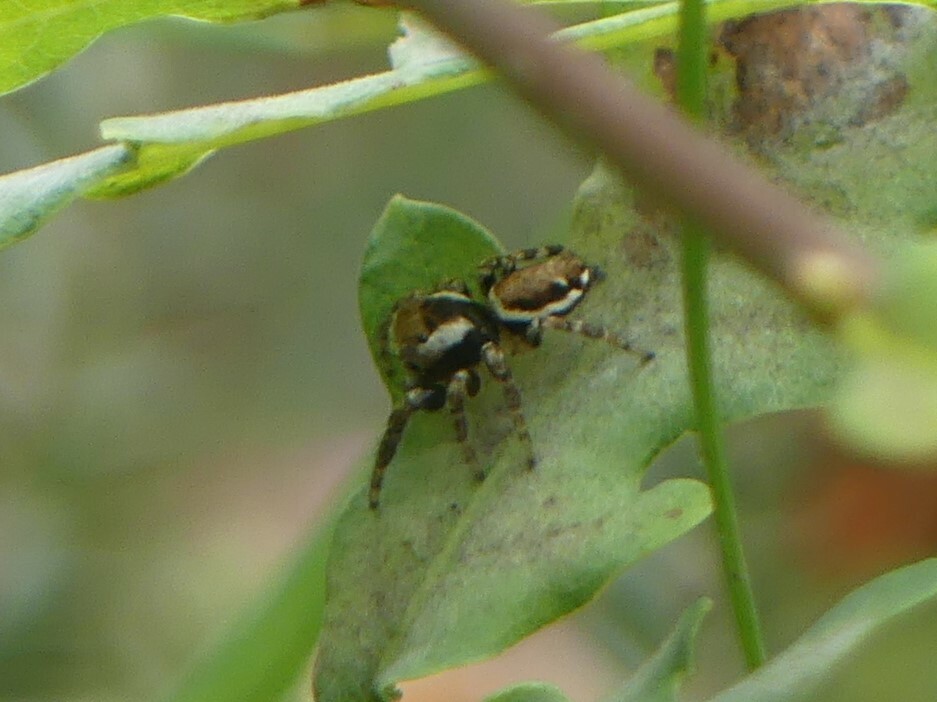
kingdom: Animalia
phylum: Arthropoda
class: Arachnida
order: Araneae
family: Salticidae
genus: Evarcha
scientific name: Evarcha falcata
